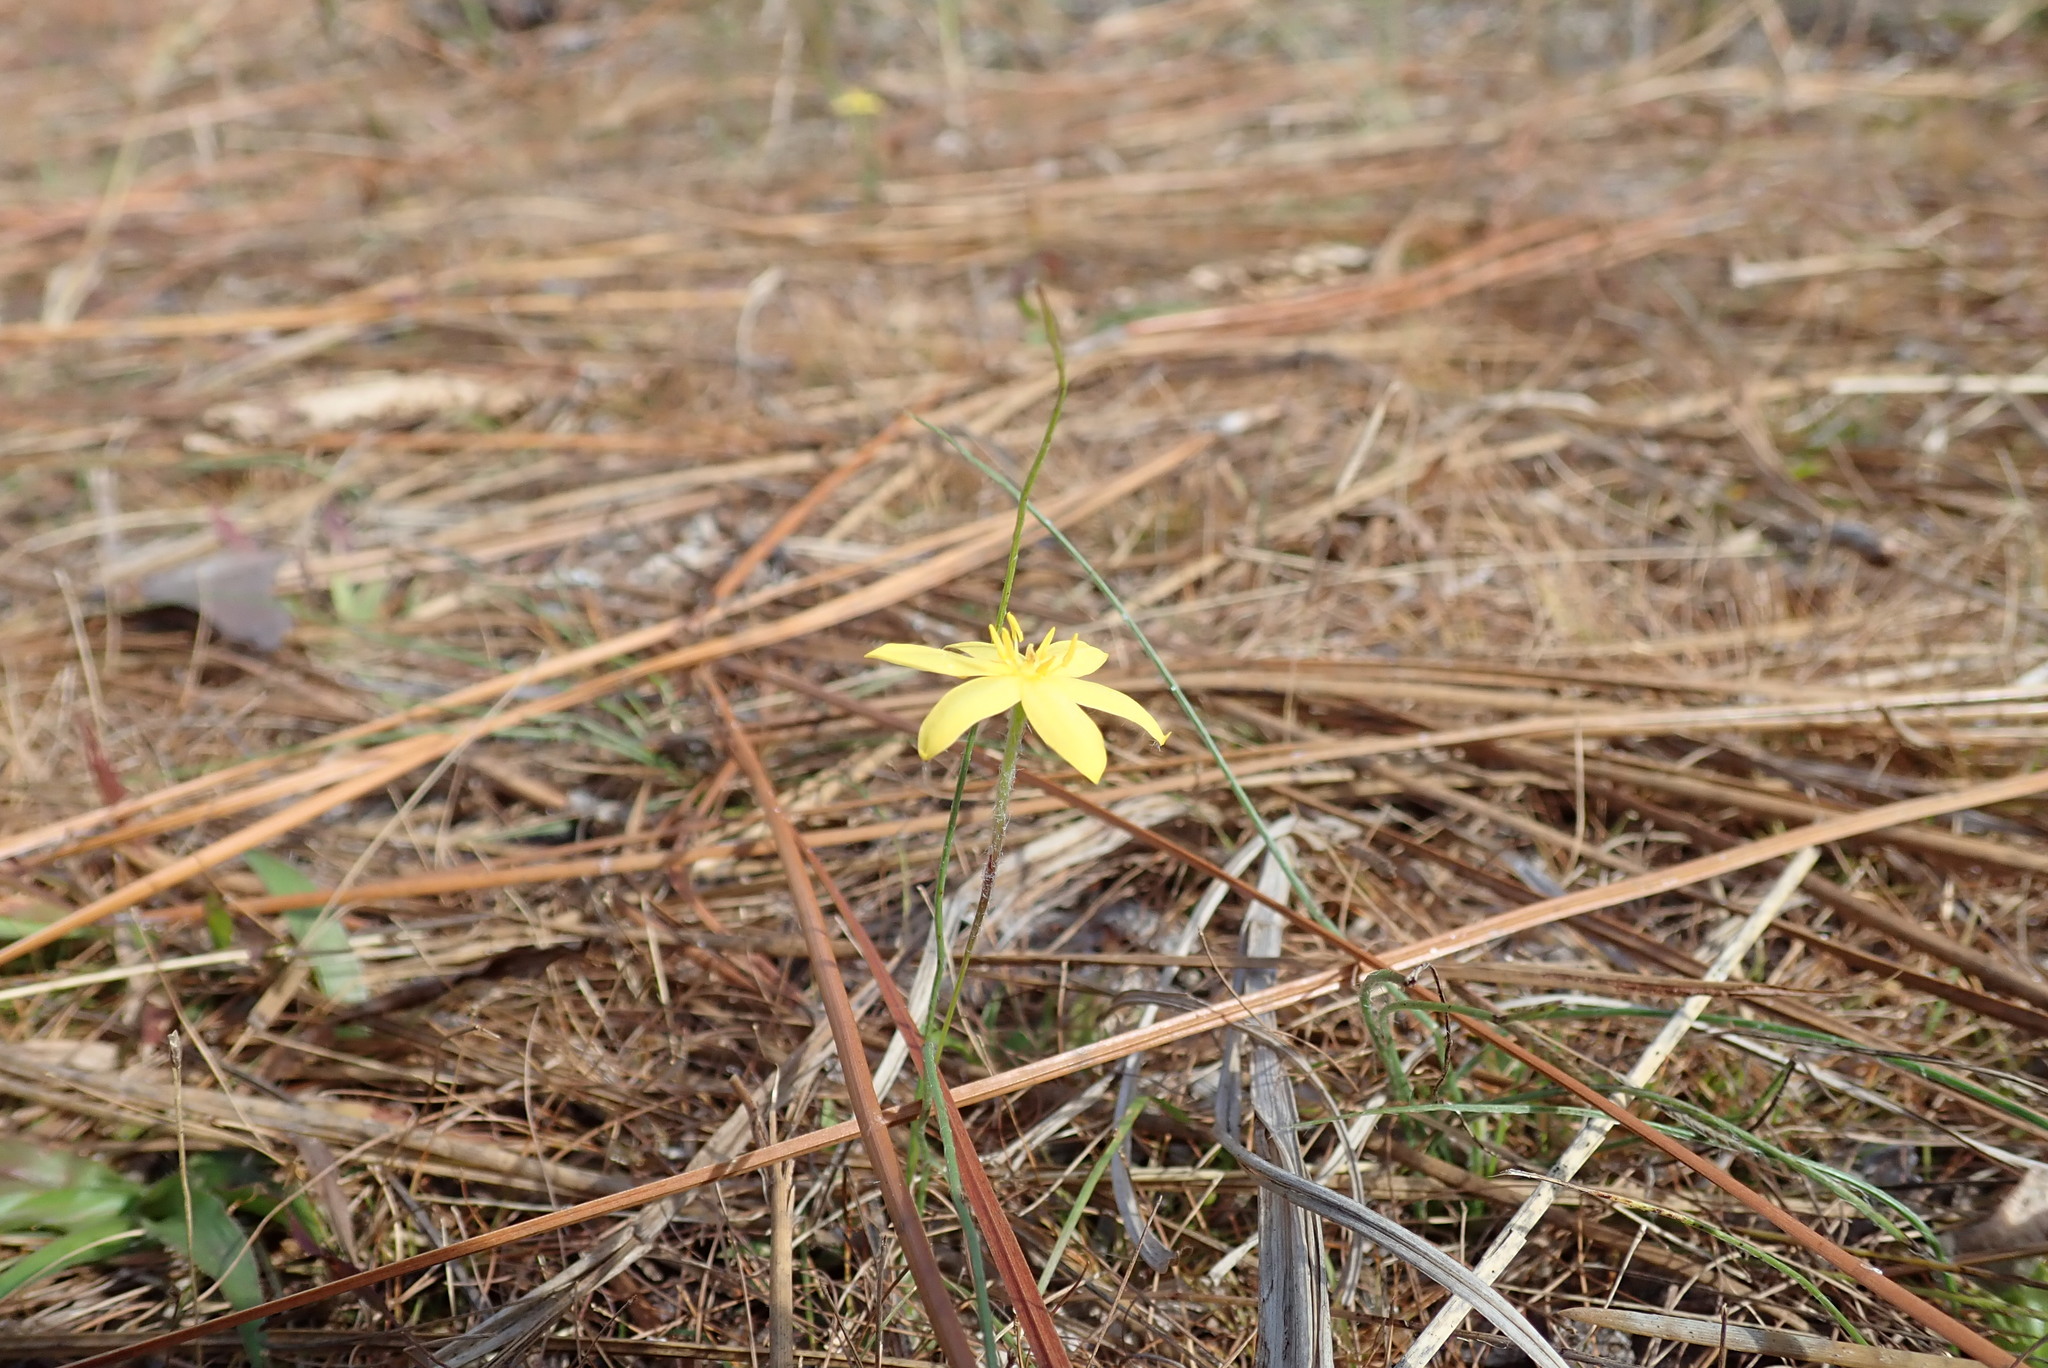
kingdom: Plantae
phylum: Tracheophyta
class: Liliopsida
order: Asparagales
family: Hypoxidaceae
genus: Hypoxis
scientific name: Hypoxis juncea
